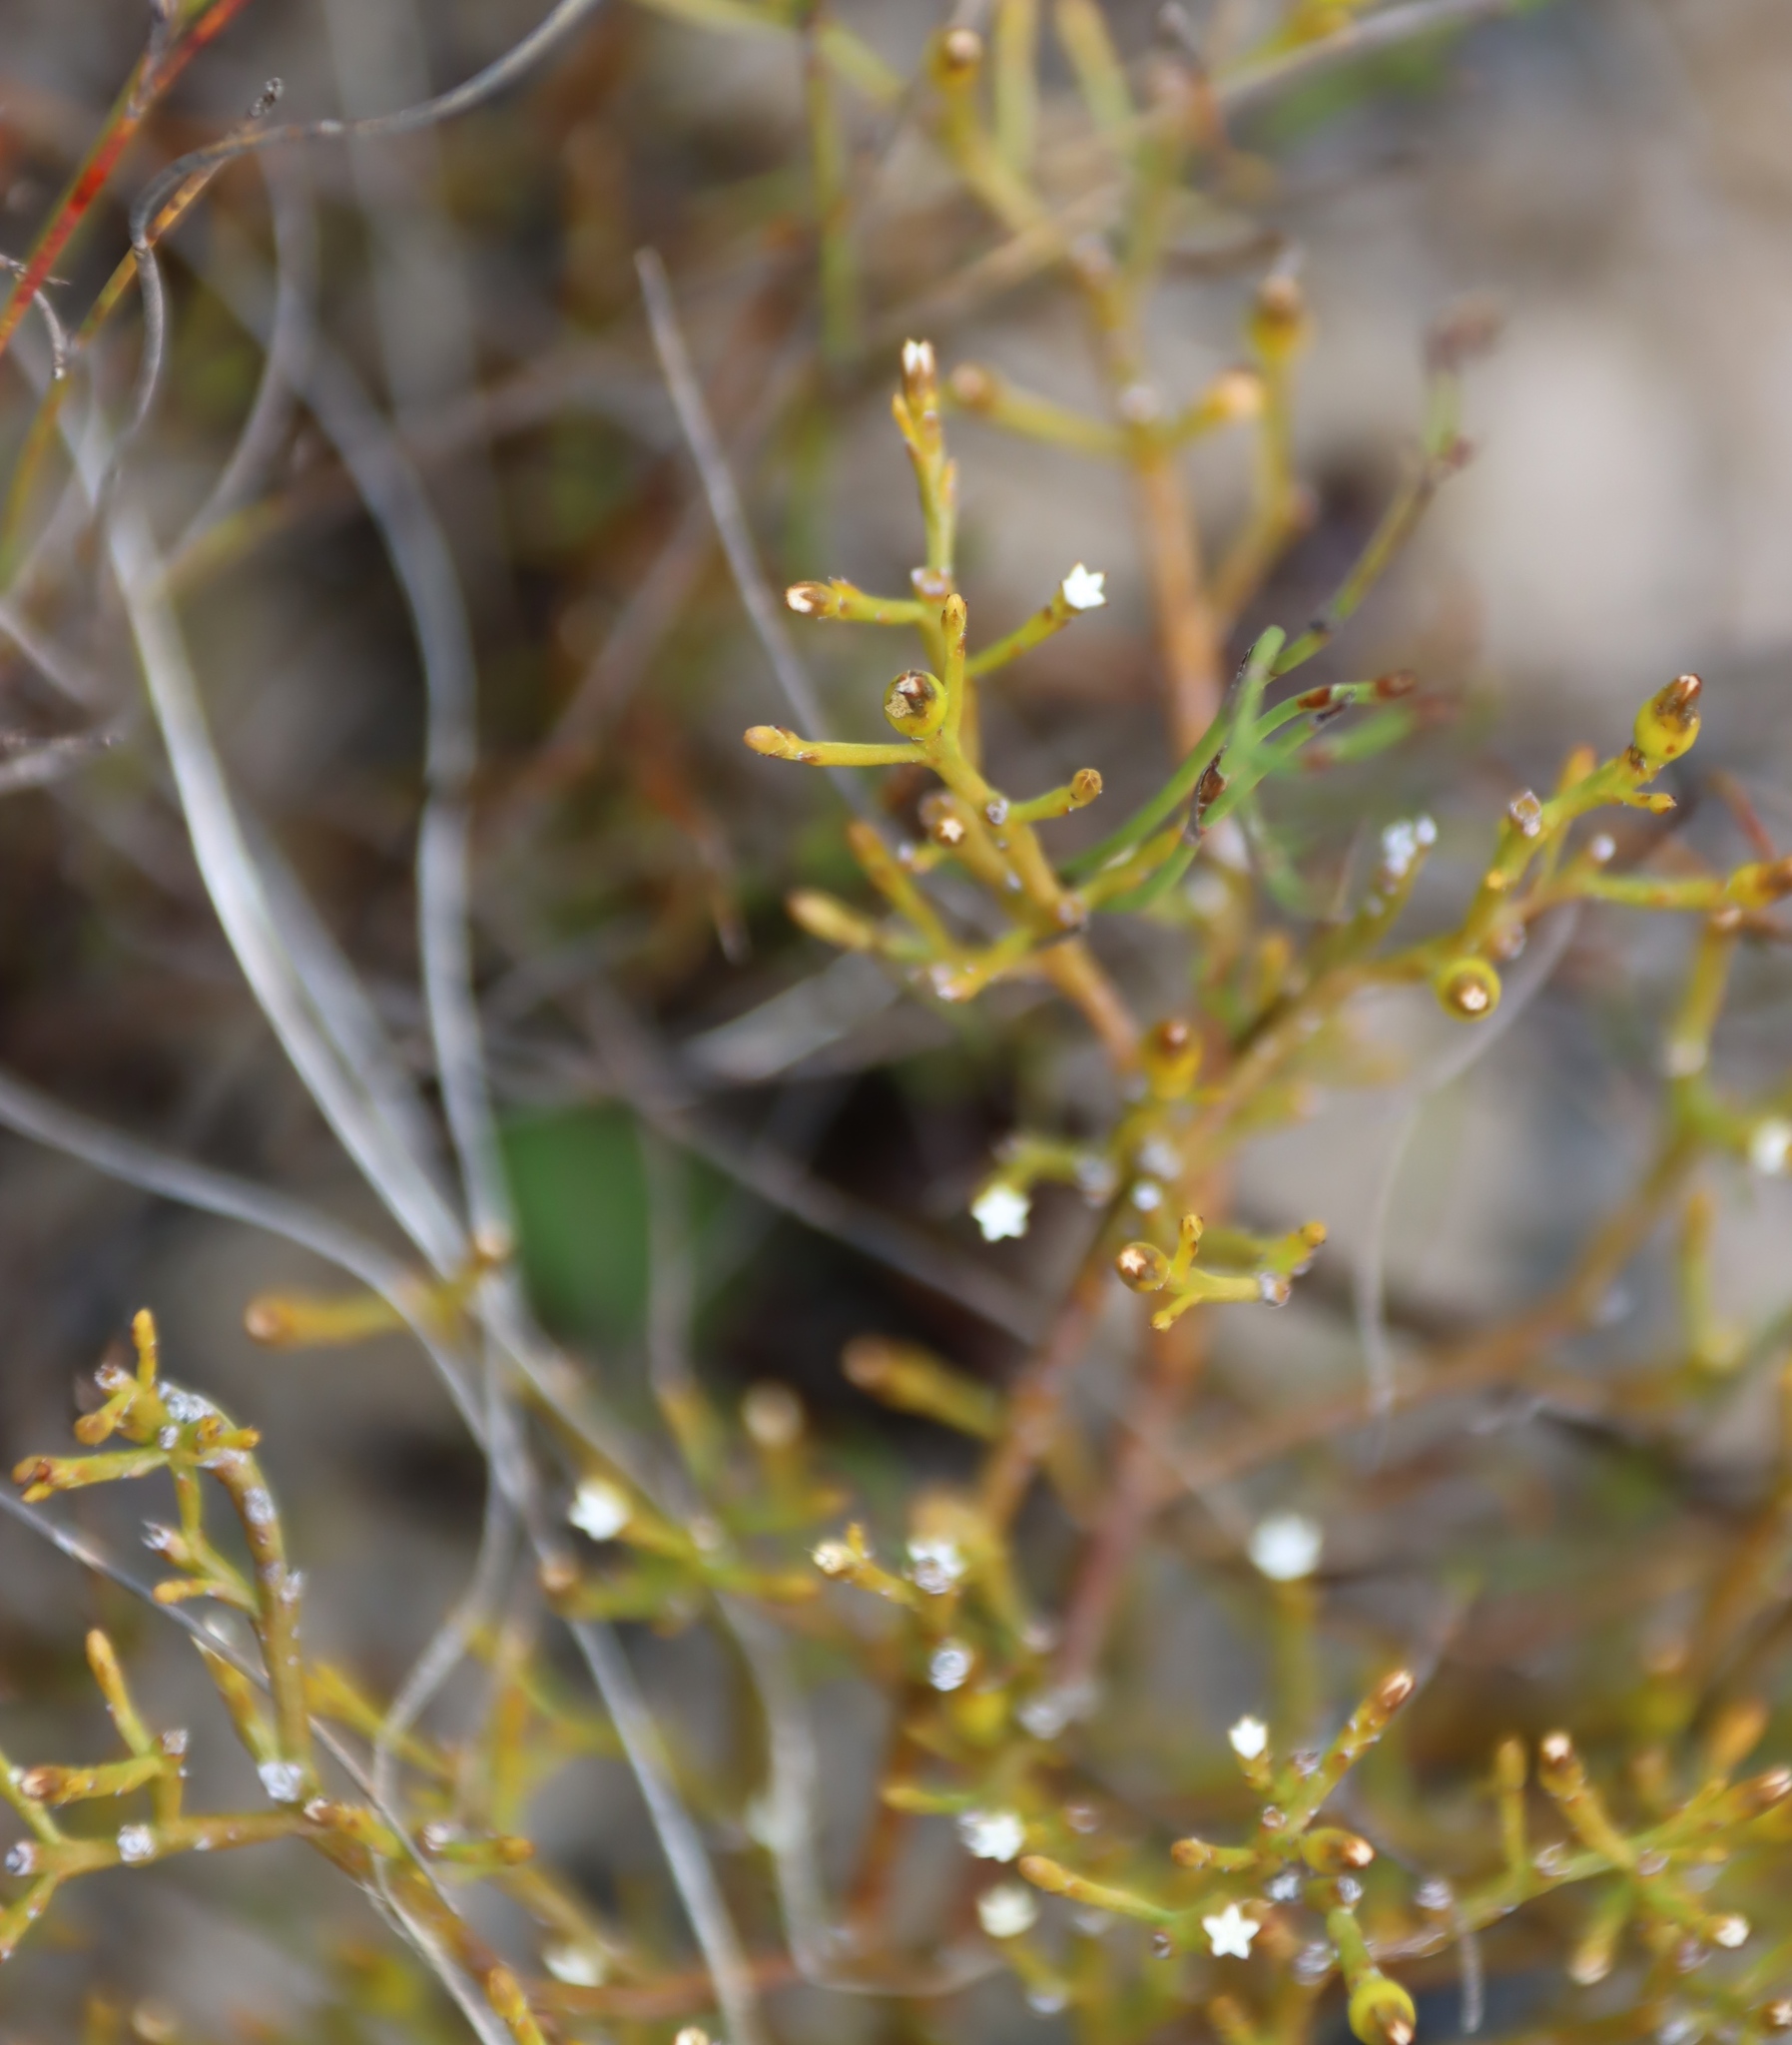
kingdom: Plantae
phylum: Tracheophyta
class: Magnoliopsida
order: Santalales
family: Thesiaceae
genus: Thesium
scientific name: Thesium euphrasioides
